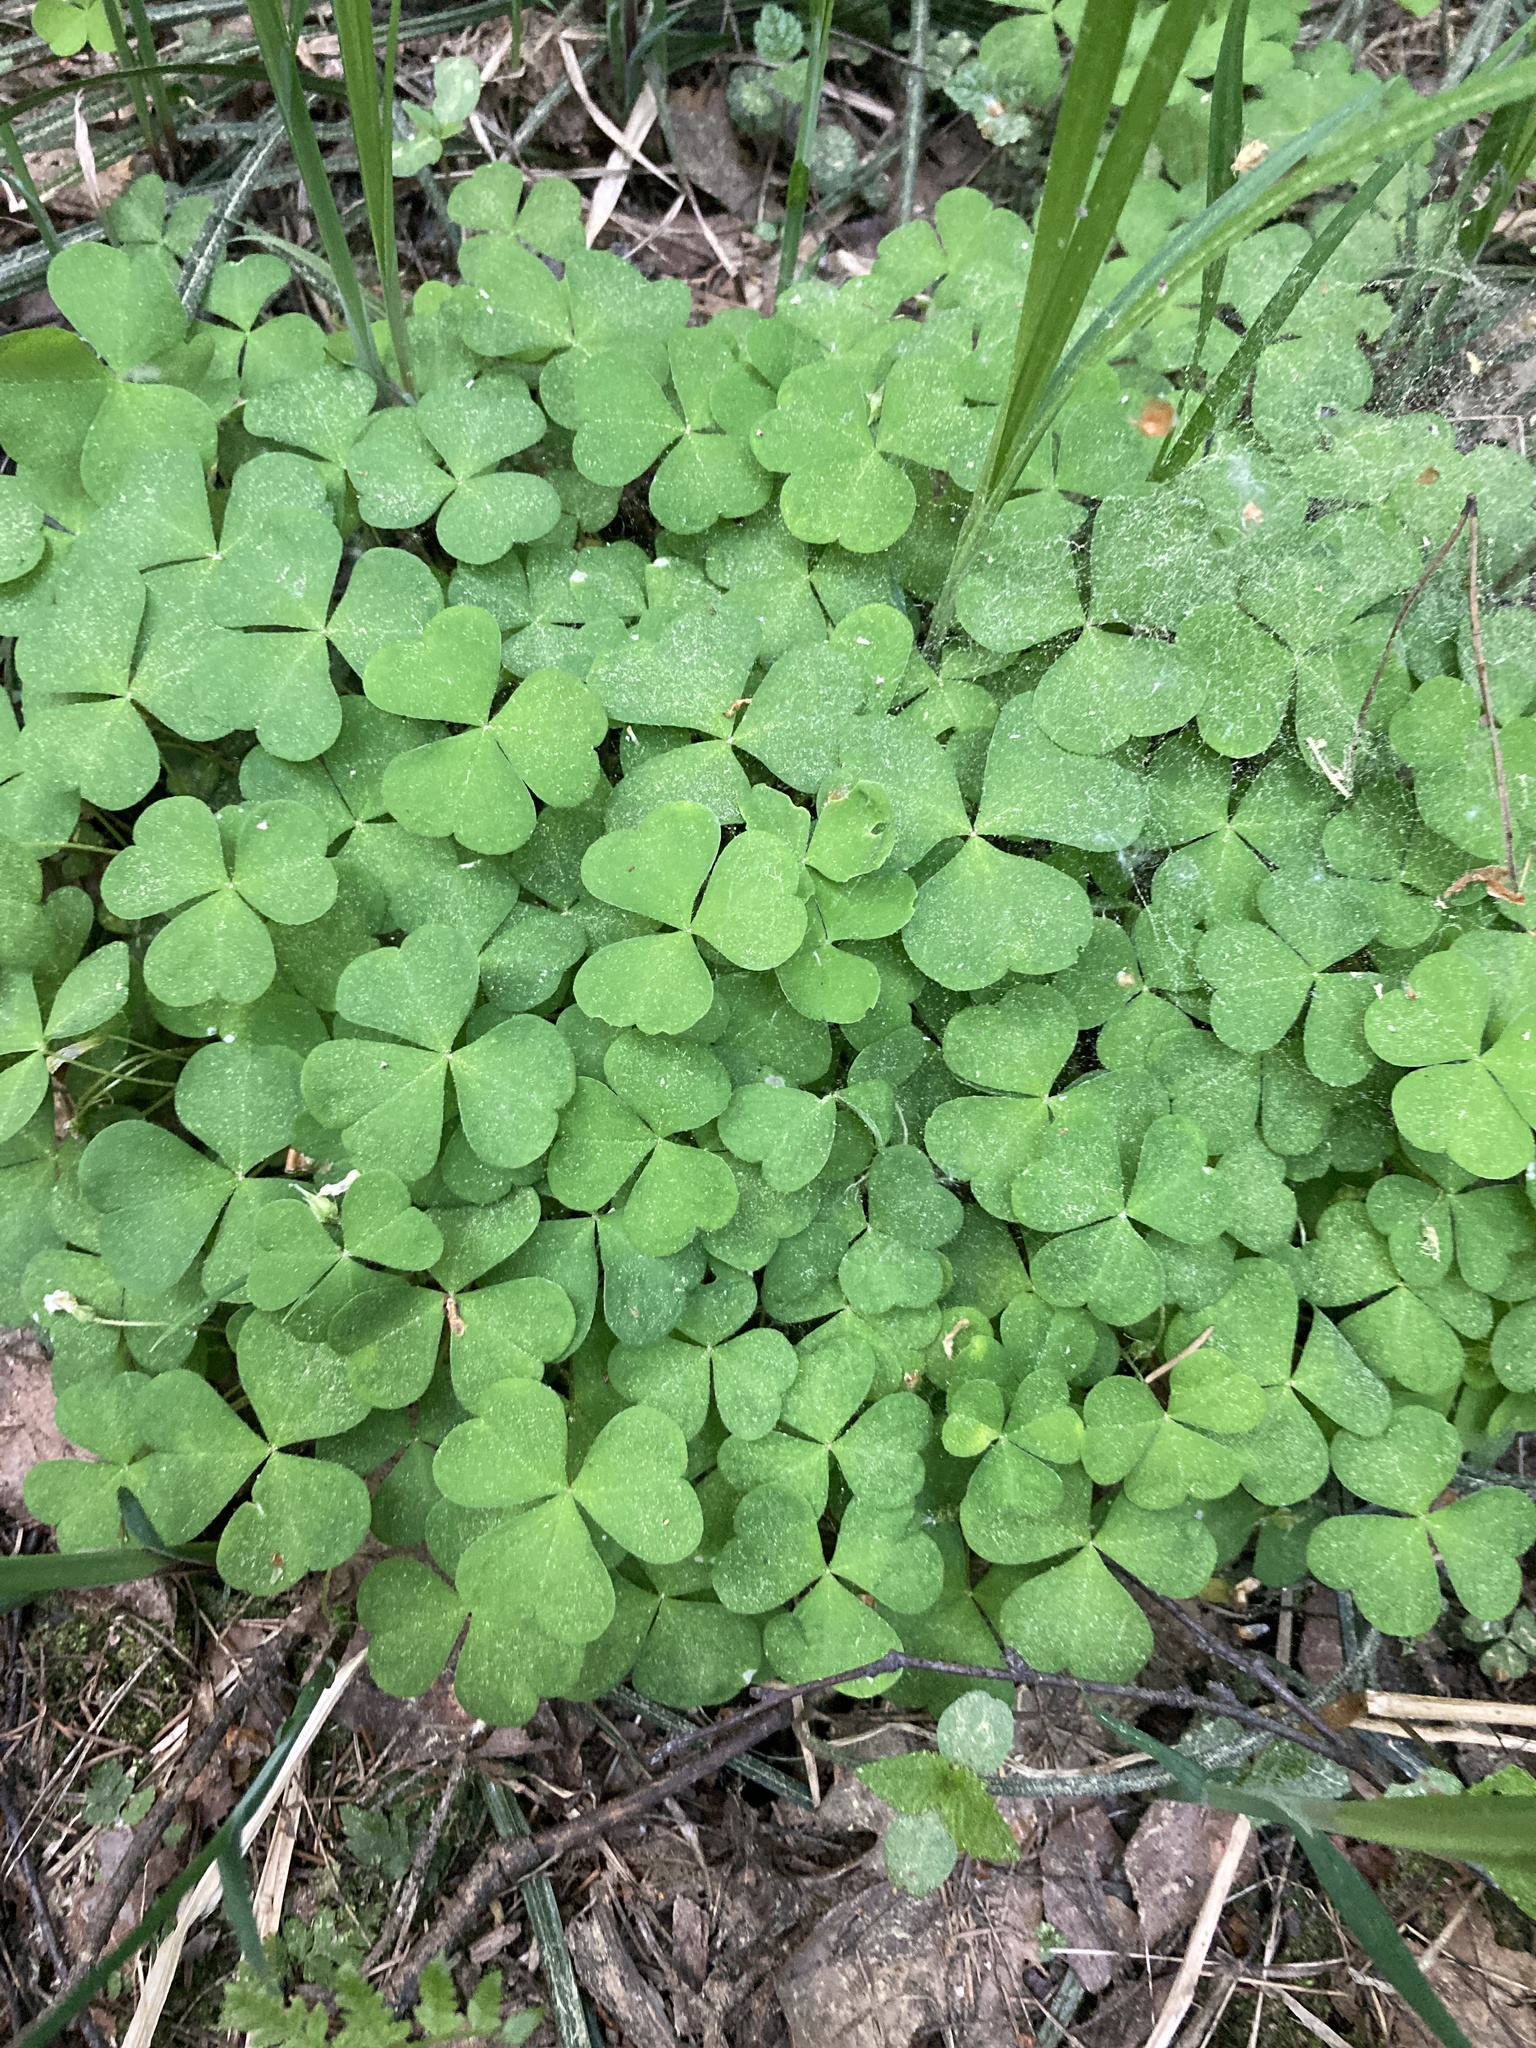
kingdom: Plantae
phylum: Tracheophyta
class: Magnoliopsida
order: Oxalidales
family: Oxalidaceae
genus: Oxalis
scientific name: Oxalis acetosella
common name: Wood-sorrel
